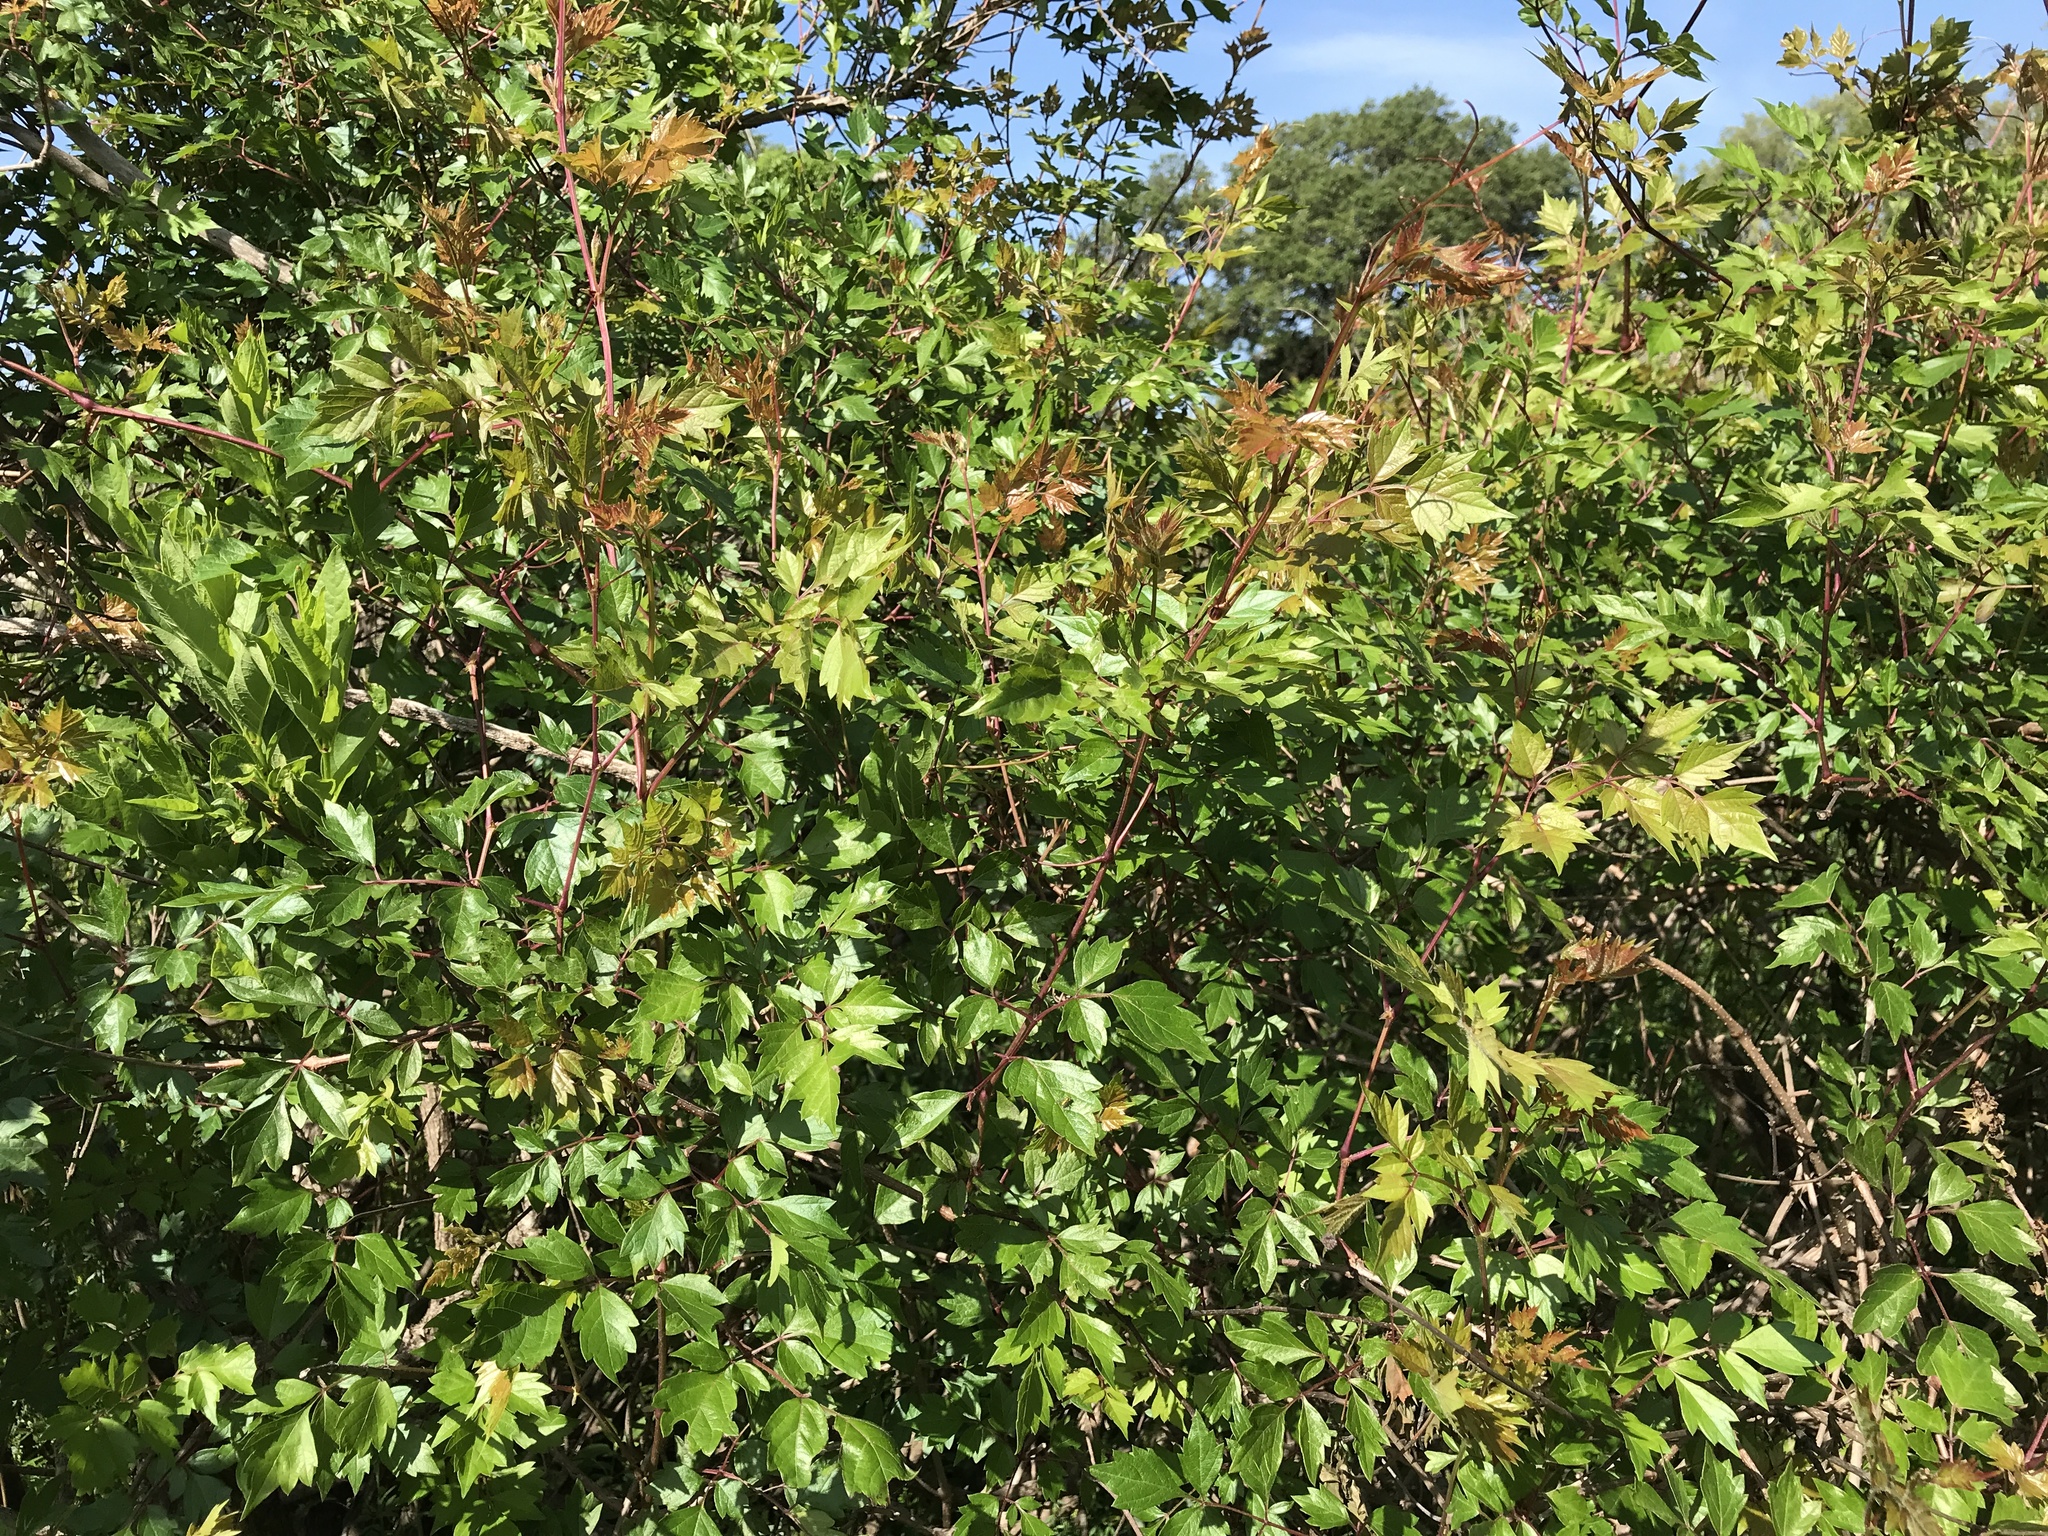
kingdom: Plantae
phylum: Tracheophyta
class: Magnoliopsida
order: Vitales
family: Vitaceae
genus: Nekemias
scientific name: Nekemias arborea
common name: Peppervine
